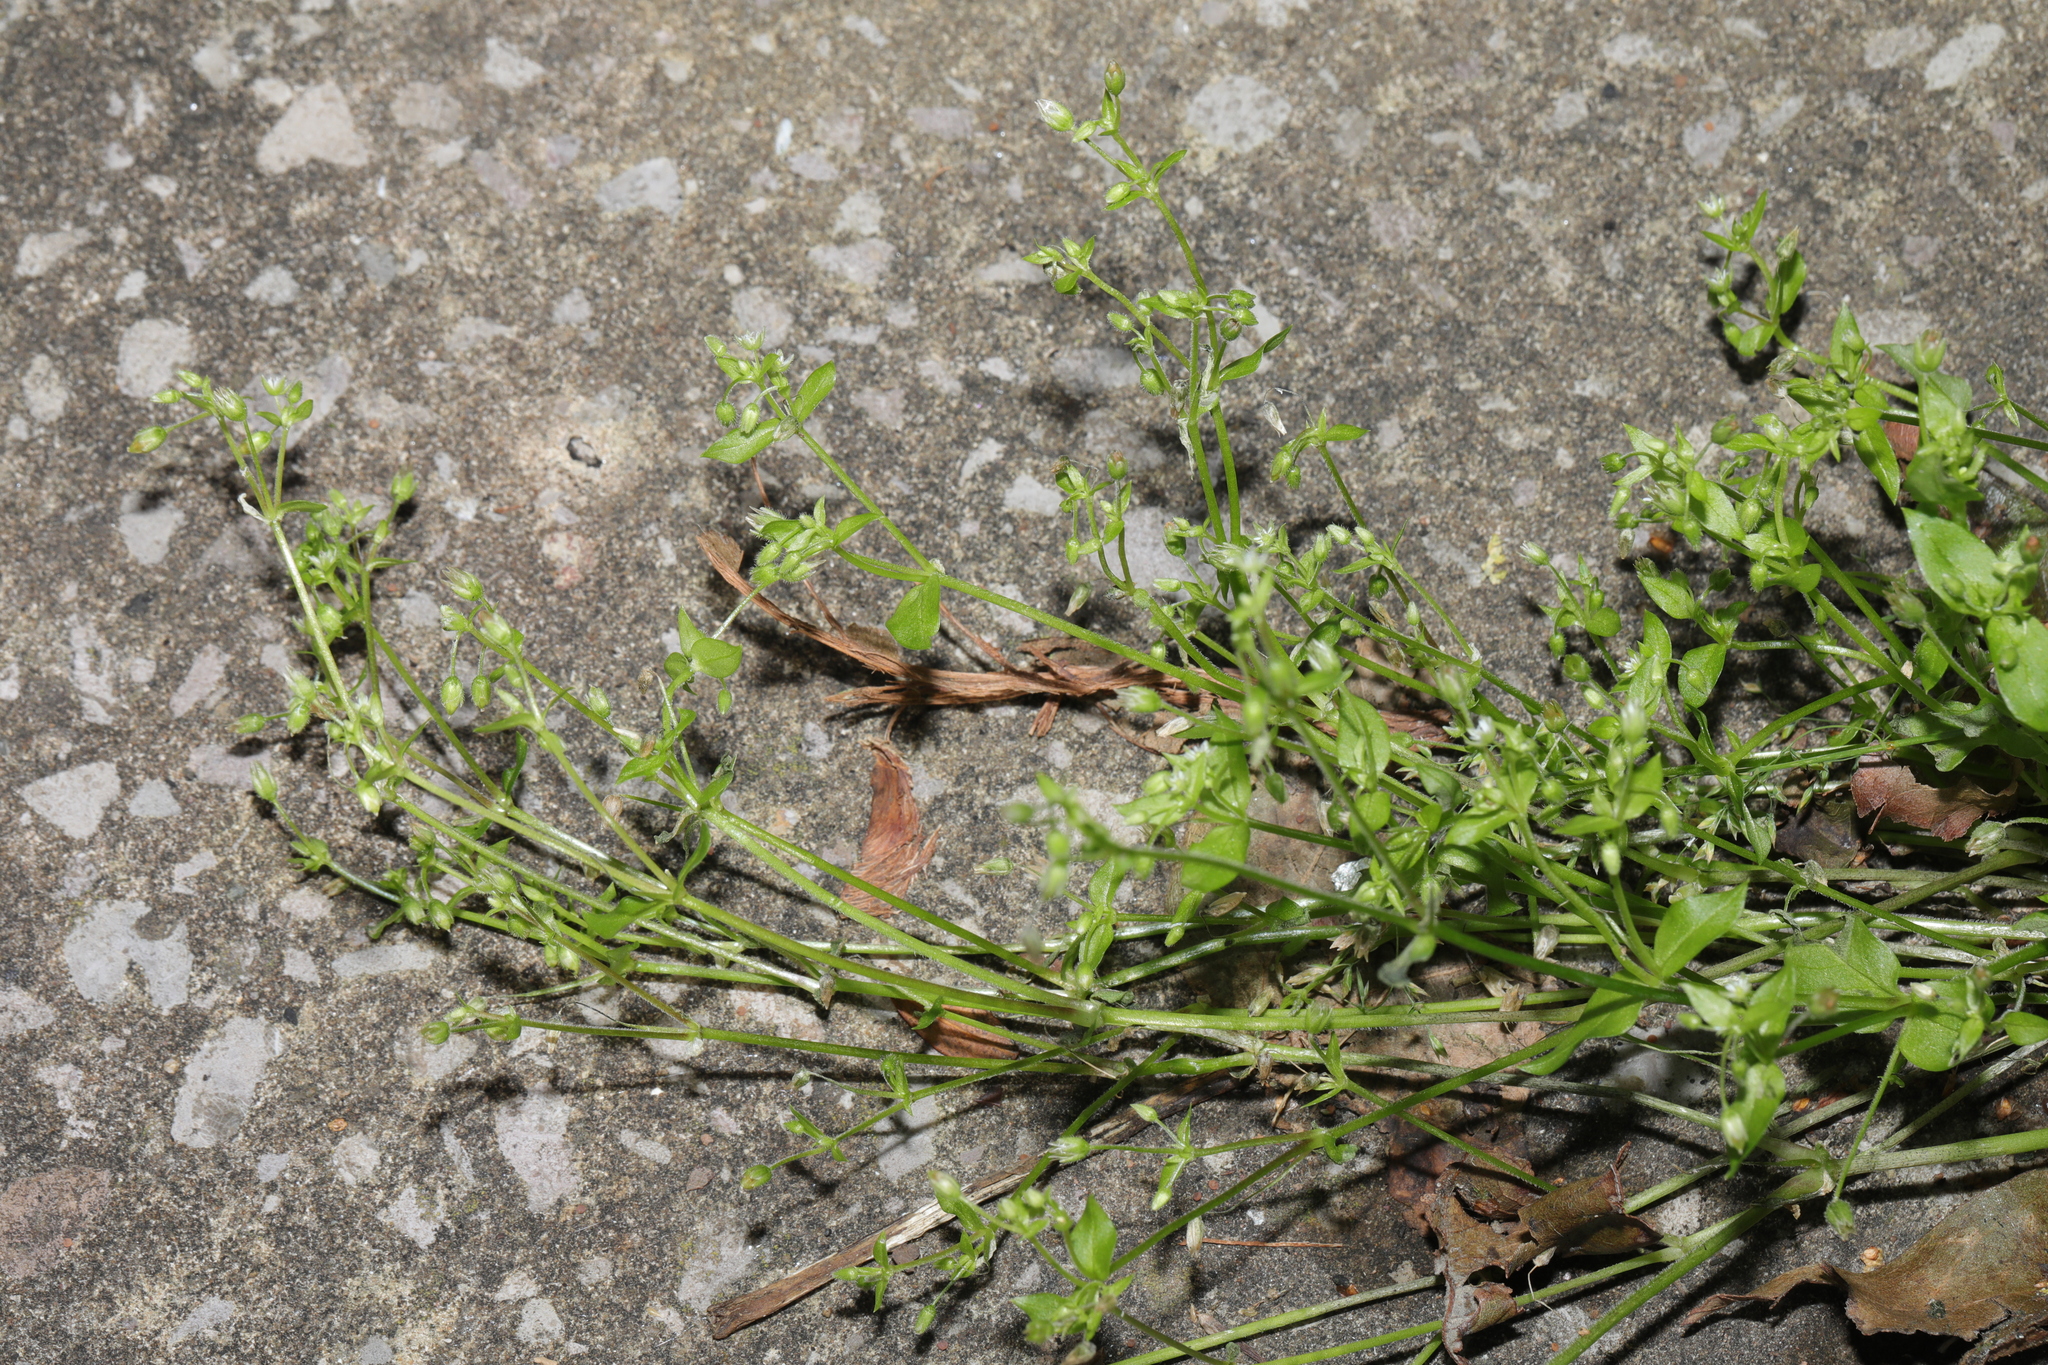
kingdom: Plantae
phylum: Tracheophyta
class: Magnoliopsida
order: Caryophyllales
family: Caryophyllaceae
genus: Stellaria
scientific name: Stellaria media
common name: Common chickweed
